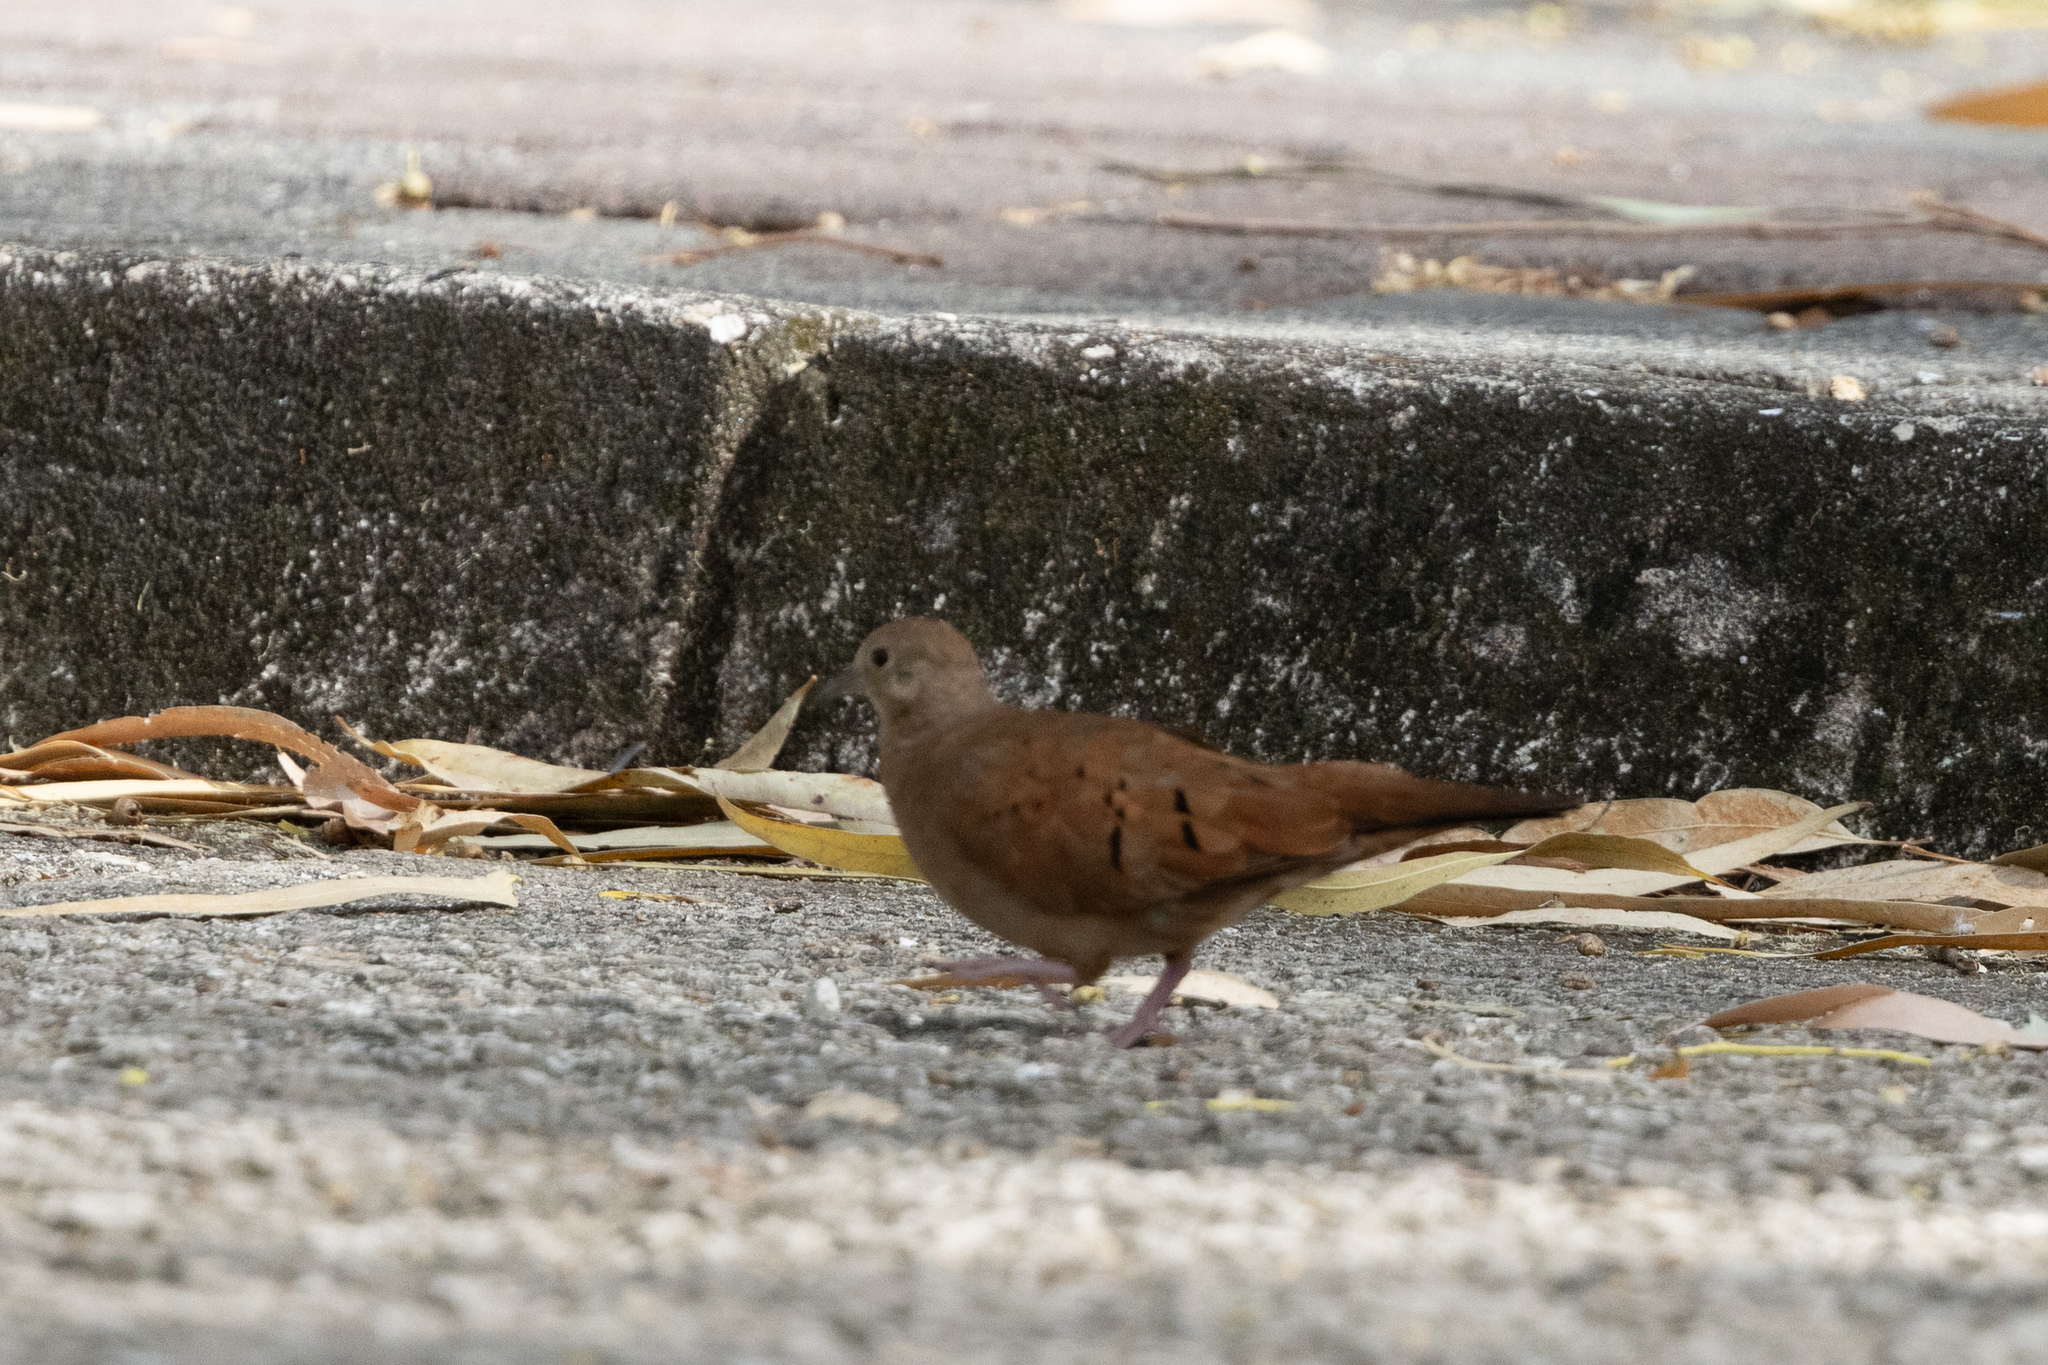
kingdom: Animalia
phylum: Chordata
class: Aves
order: Columbiformes
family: Columbidae
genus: Columbina
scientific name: Columbina talpacoti
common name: Ruddy ground dove
